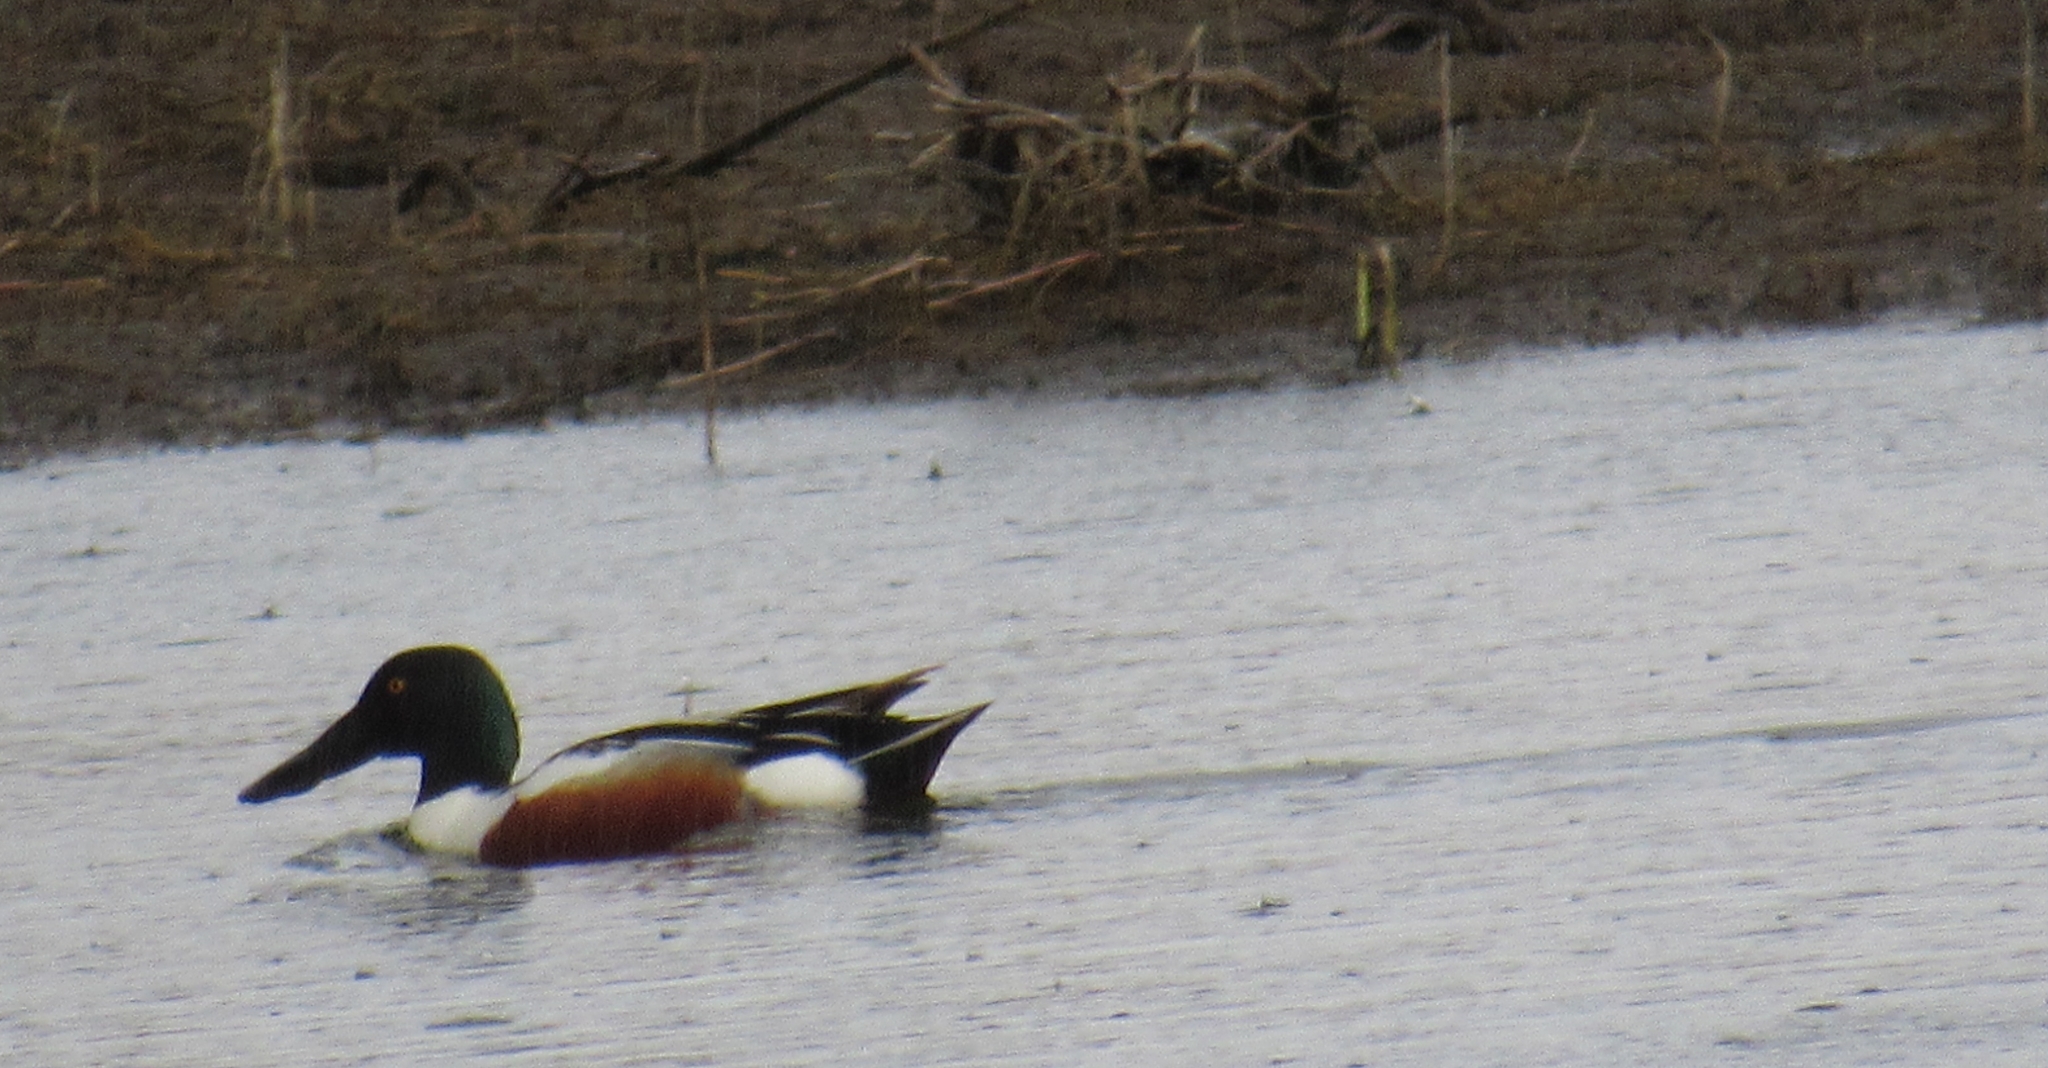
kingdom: Animalia
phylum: Chordata
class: Aves
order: Anseriformes
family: Anatidae
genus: Spatula
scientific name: Spatula clypeata
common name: Northern shoveler
